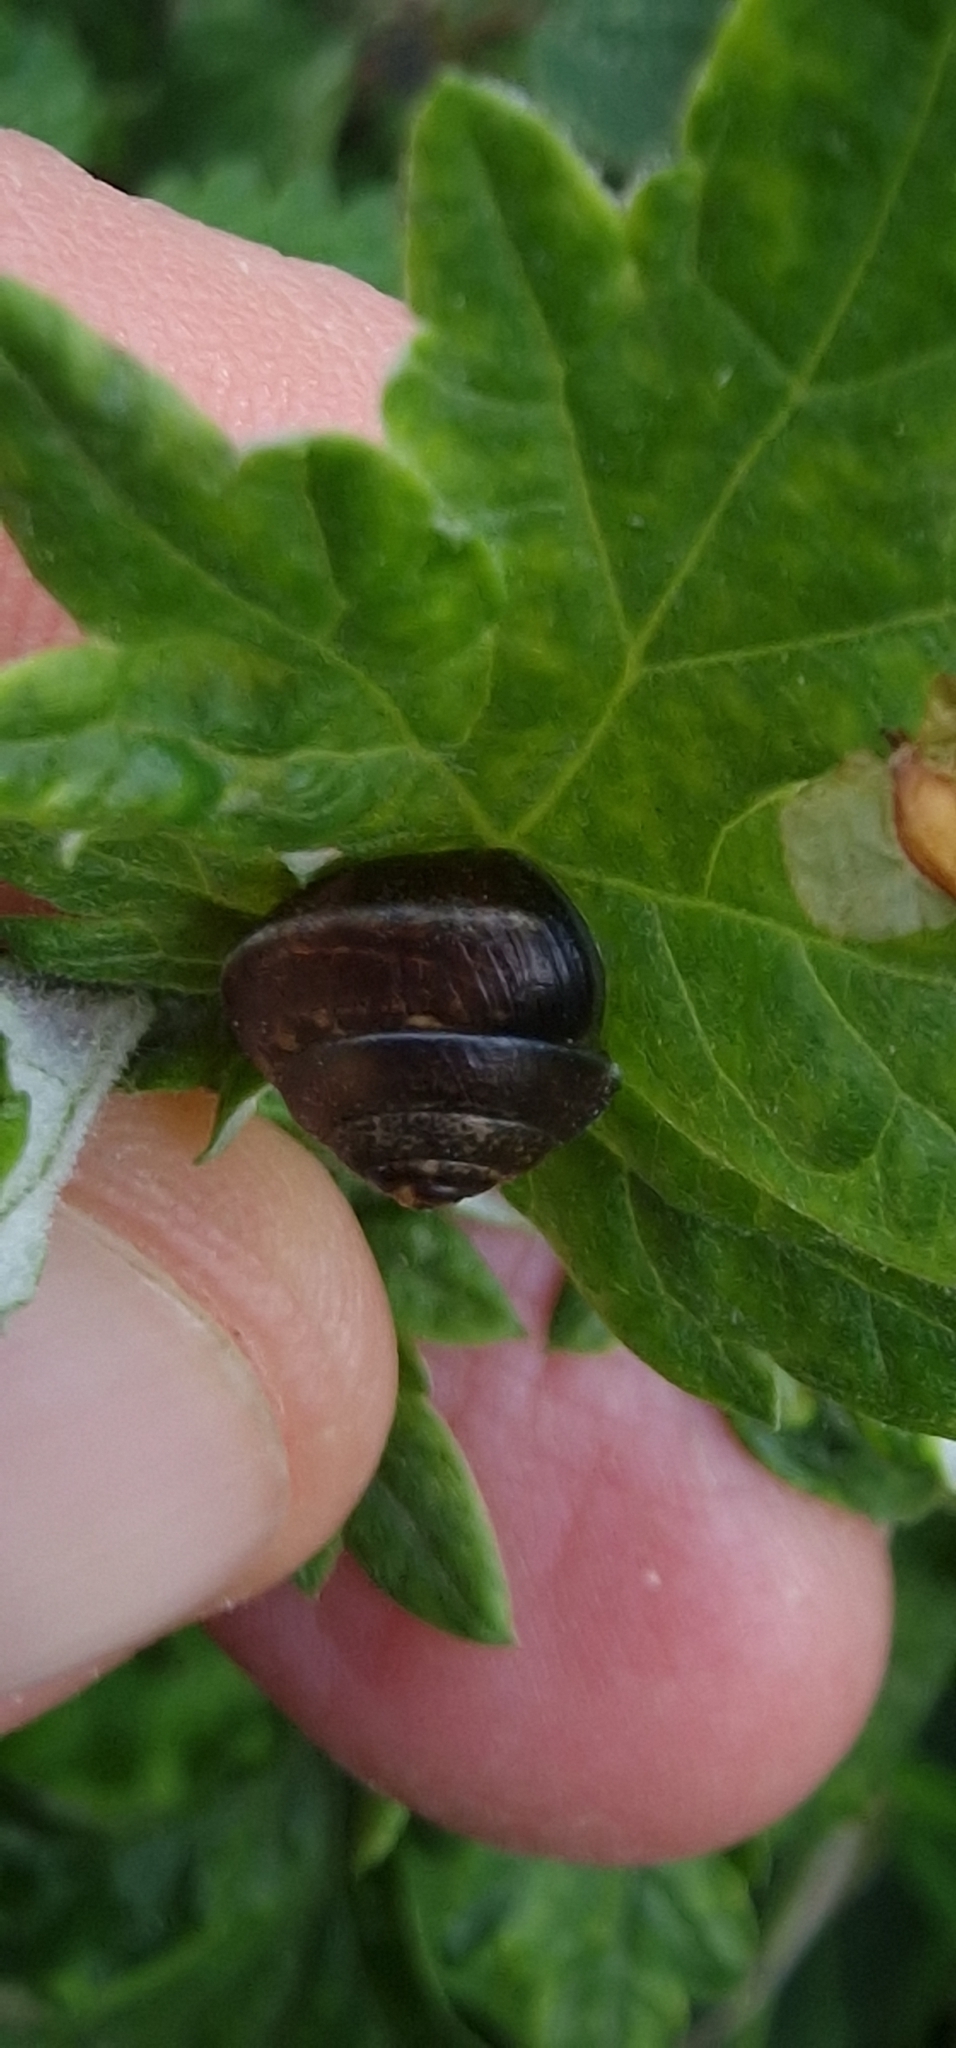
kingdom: Animalia
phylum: Mollusca
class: Gastropoda
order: Stylommatophora
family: Hygromiidae
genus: Hygromia
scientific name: Hygromia cinctella
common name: Girdled snail
